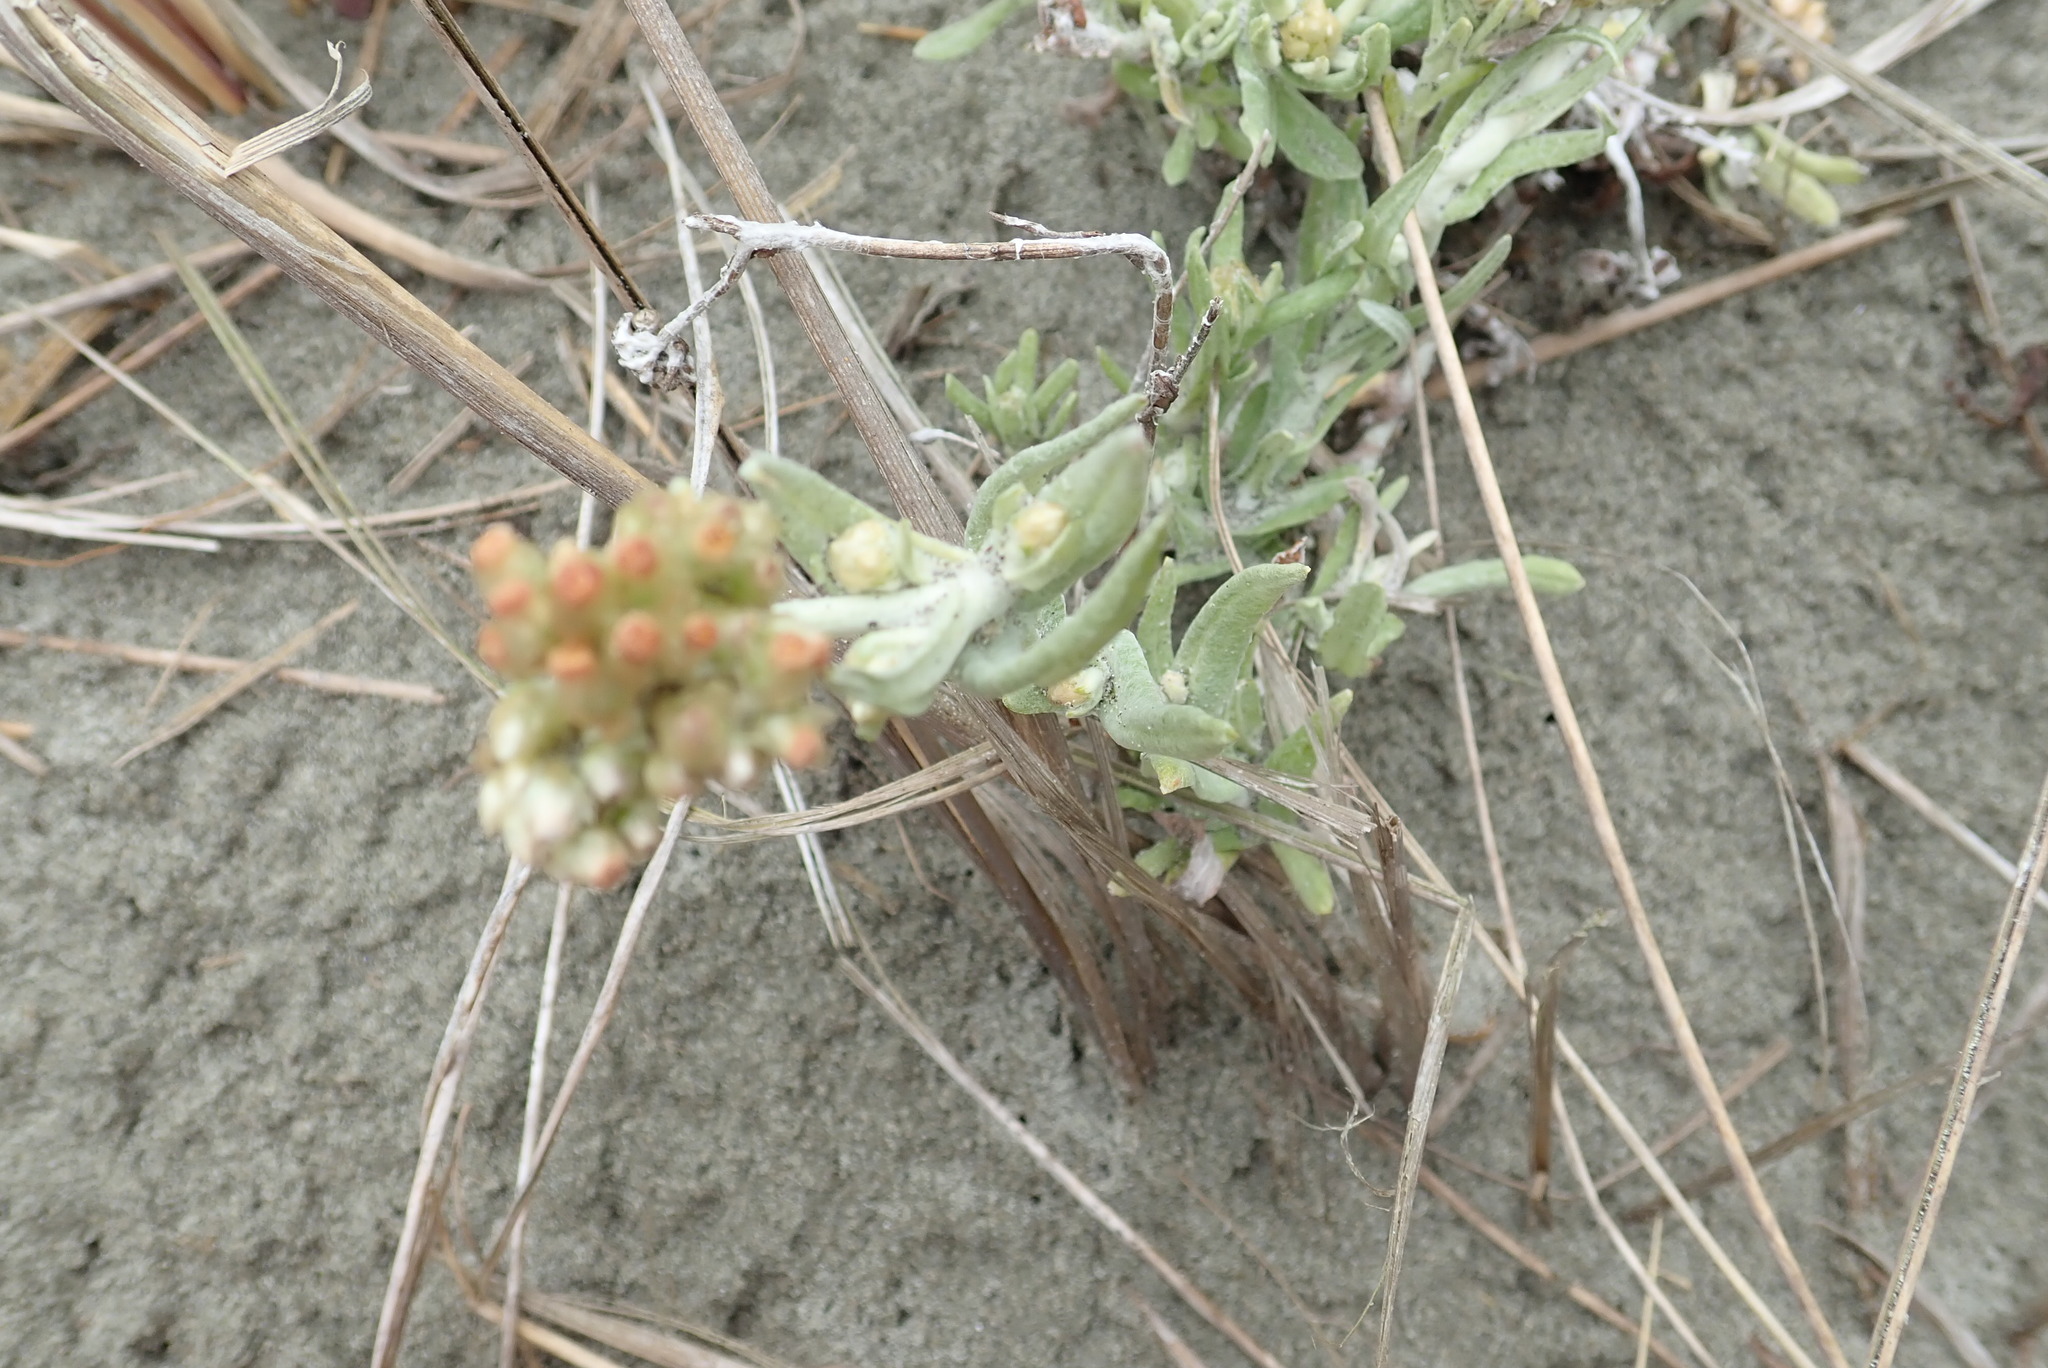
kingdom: Plantae
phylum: Tracheophyta
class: Magnoliopsida
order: Asterales
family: Asteraceae
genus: Helichrysum
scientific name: Helichrysum luteoalbum
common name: Daisy
